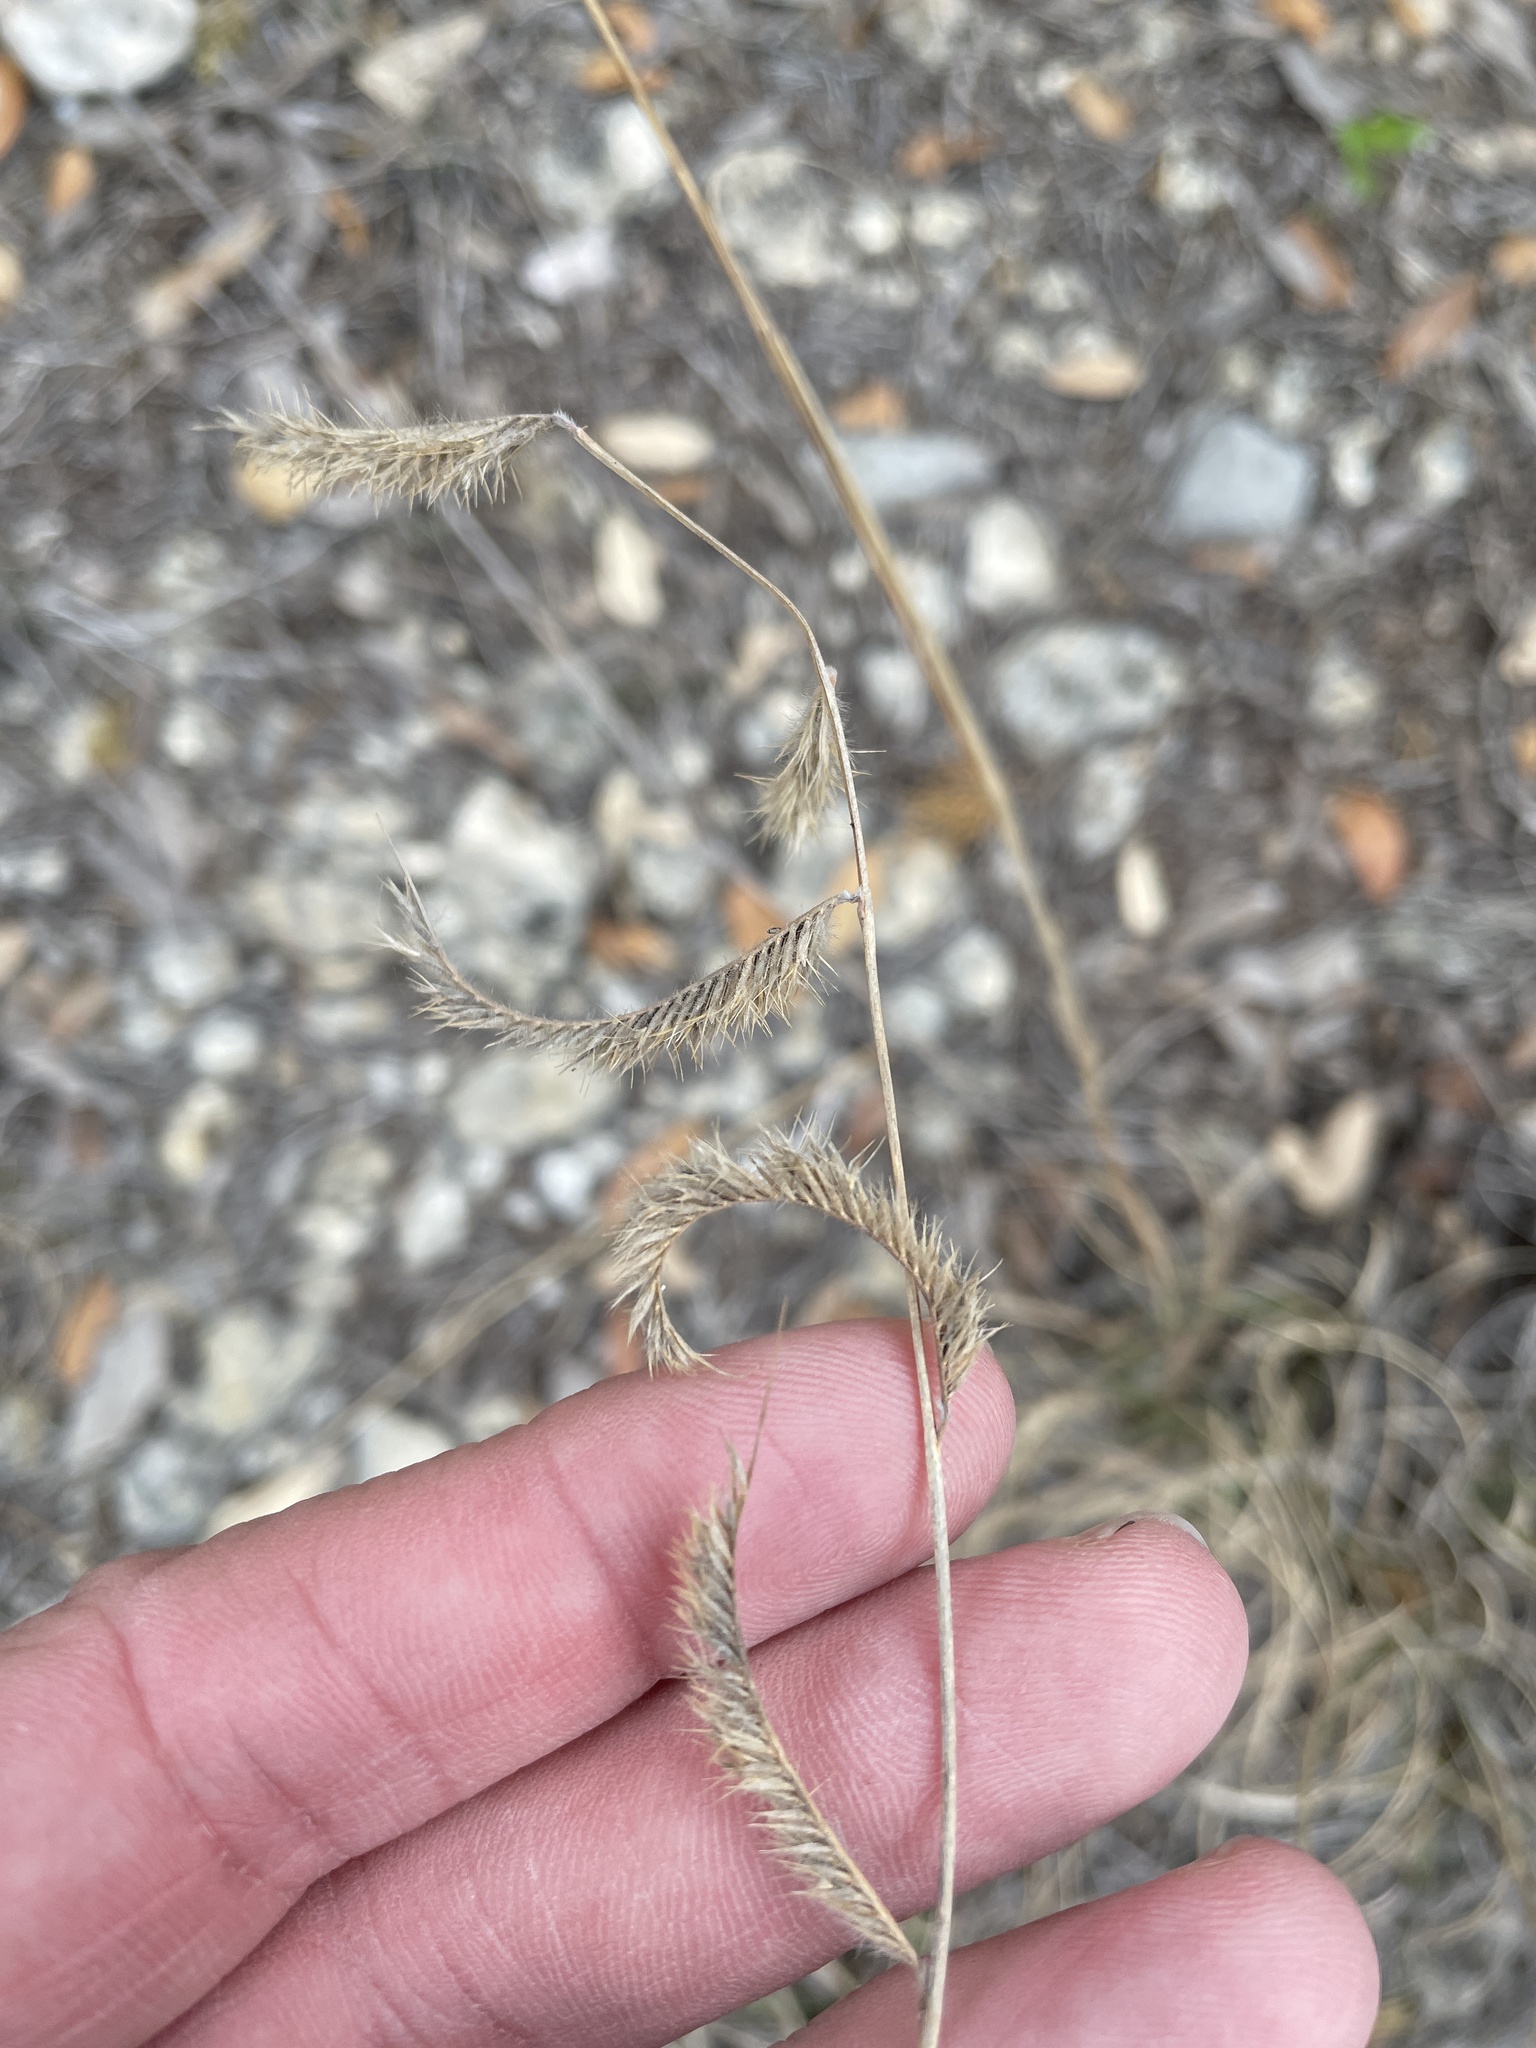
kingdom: Plantae
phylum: Tracheophyta
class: Liliopsida
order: Poales
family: Poaceae
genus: Bouteloua
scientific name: Bouteloua pectinata
